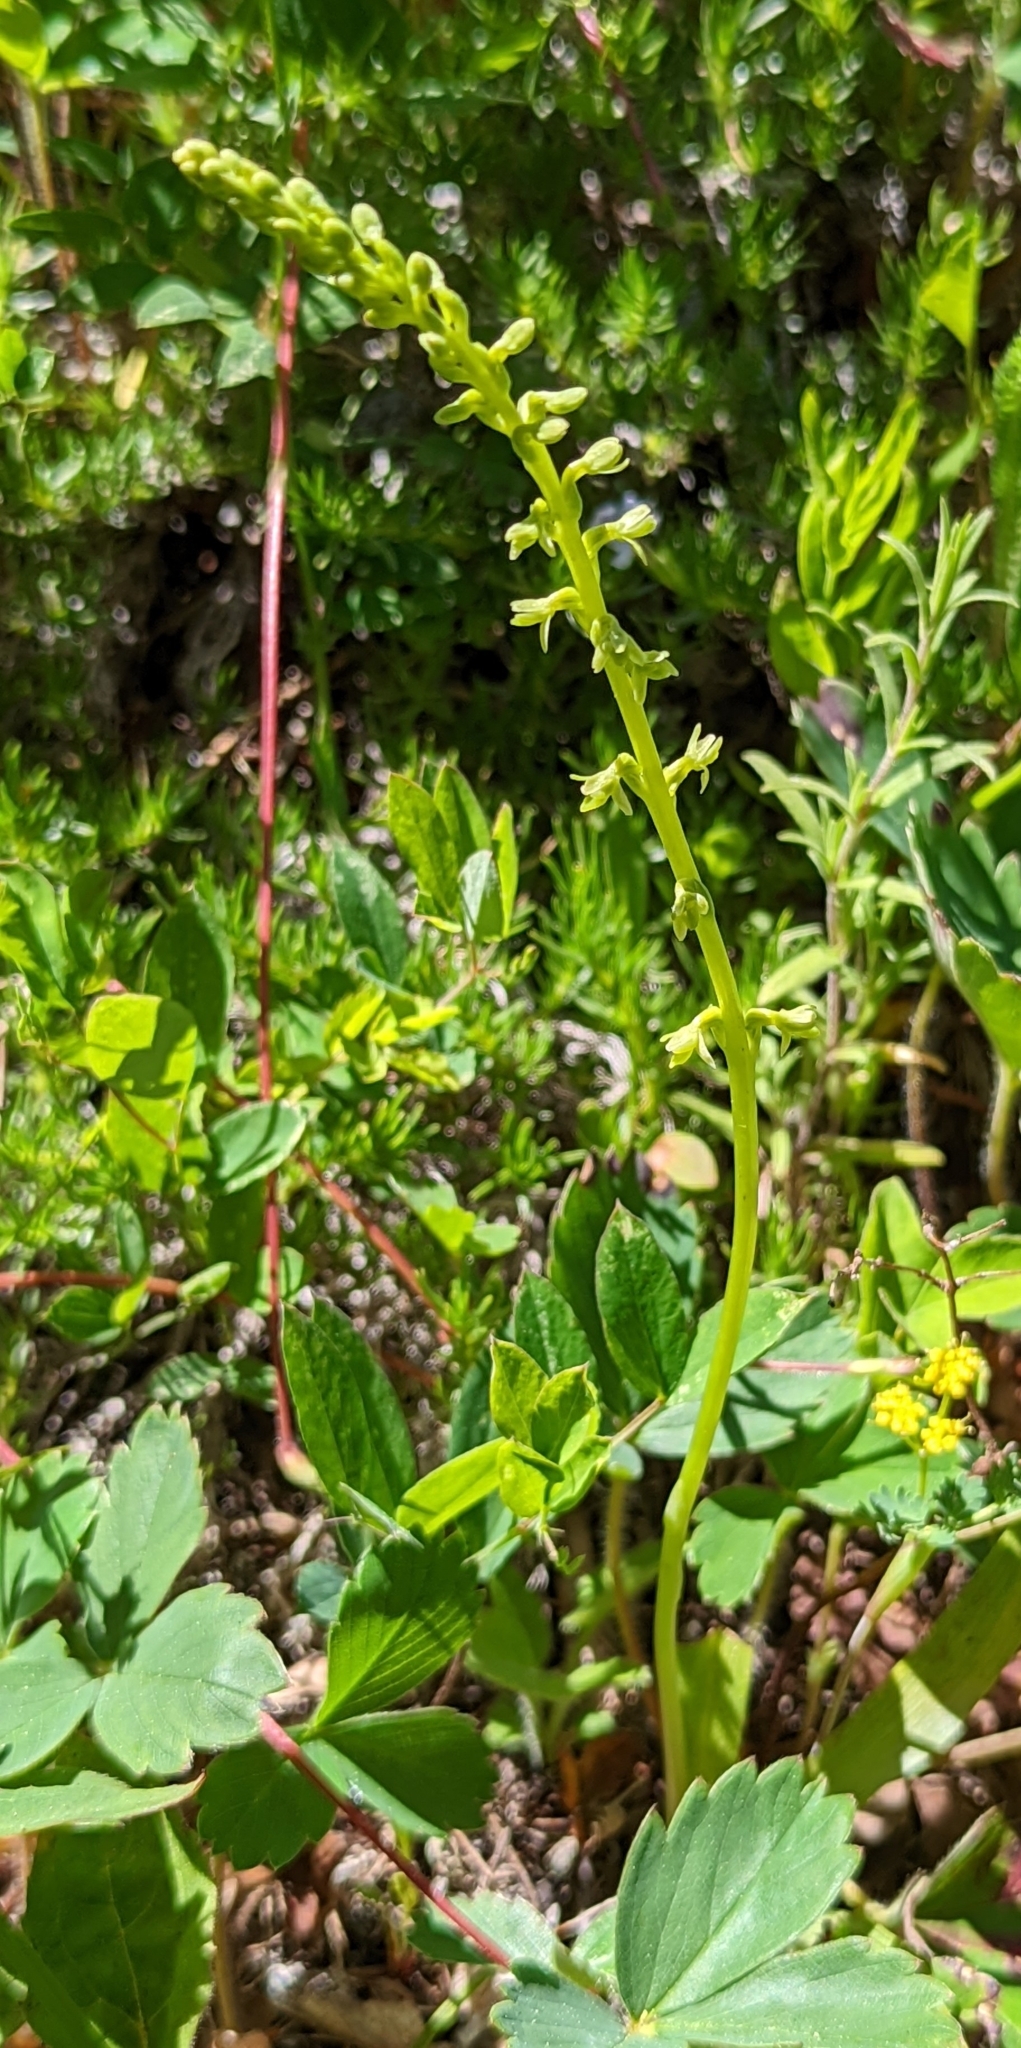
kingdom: Plantae
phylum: Tracheophyta
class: Liliopsida
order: Asparagales
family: Orchidaceae
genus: Platanthera
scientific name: Platanthera unalascensis
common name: Alaska bog orchid
